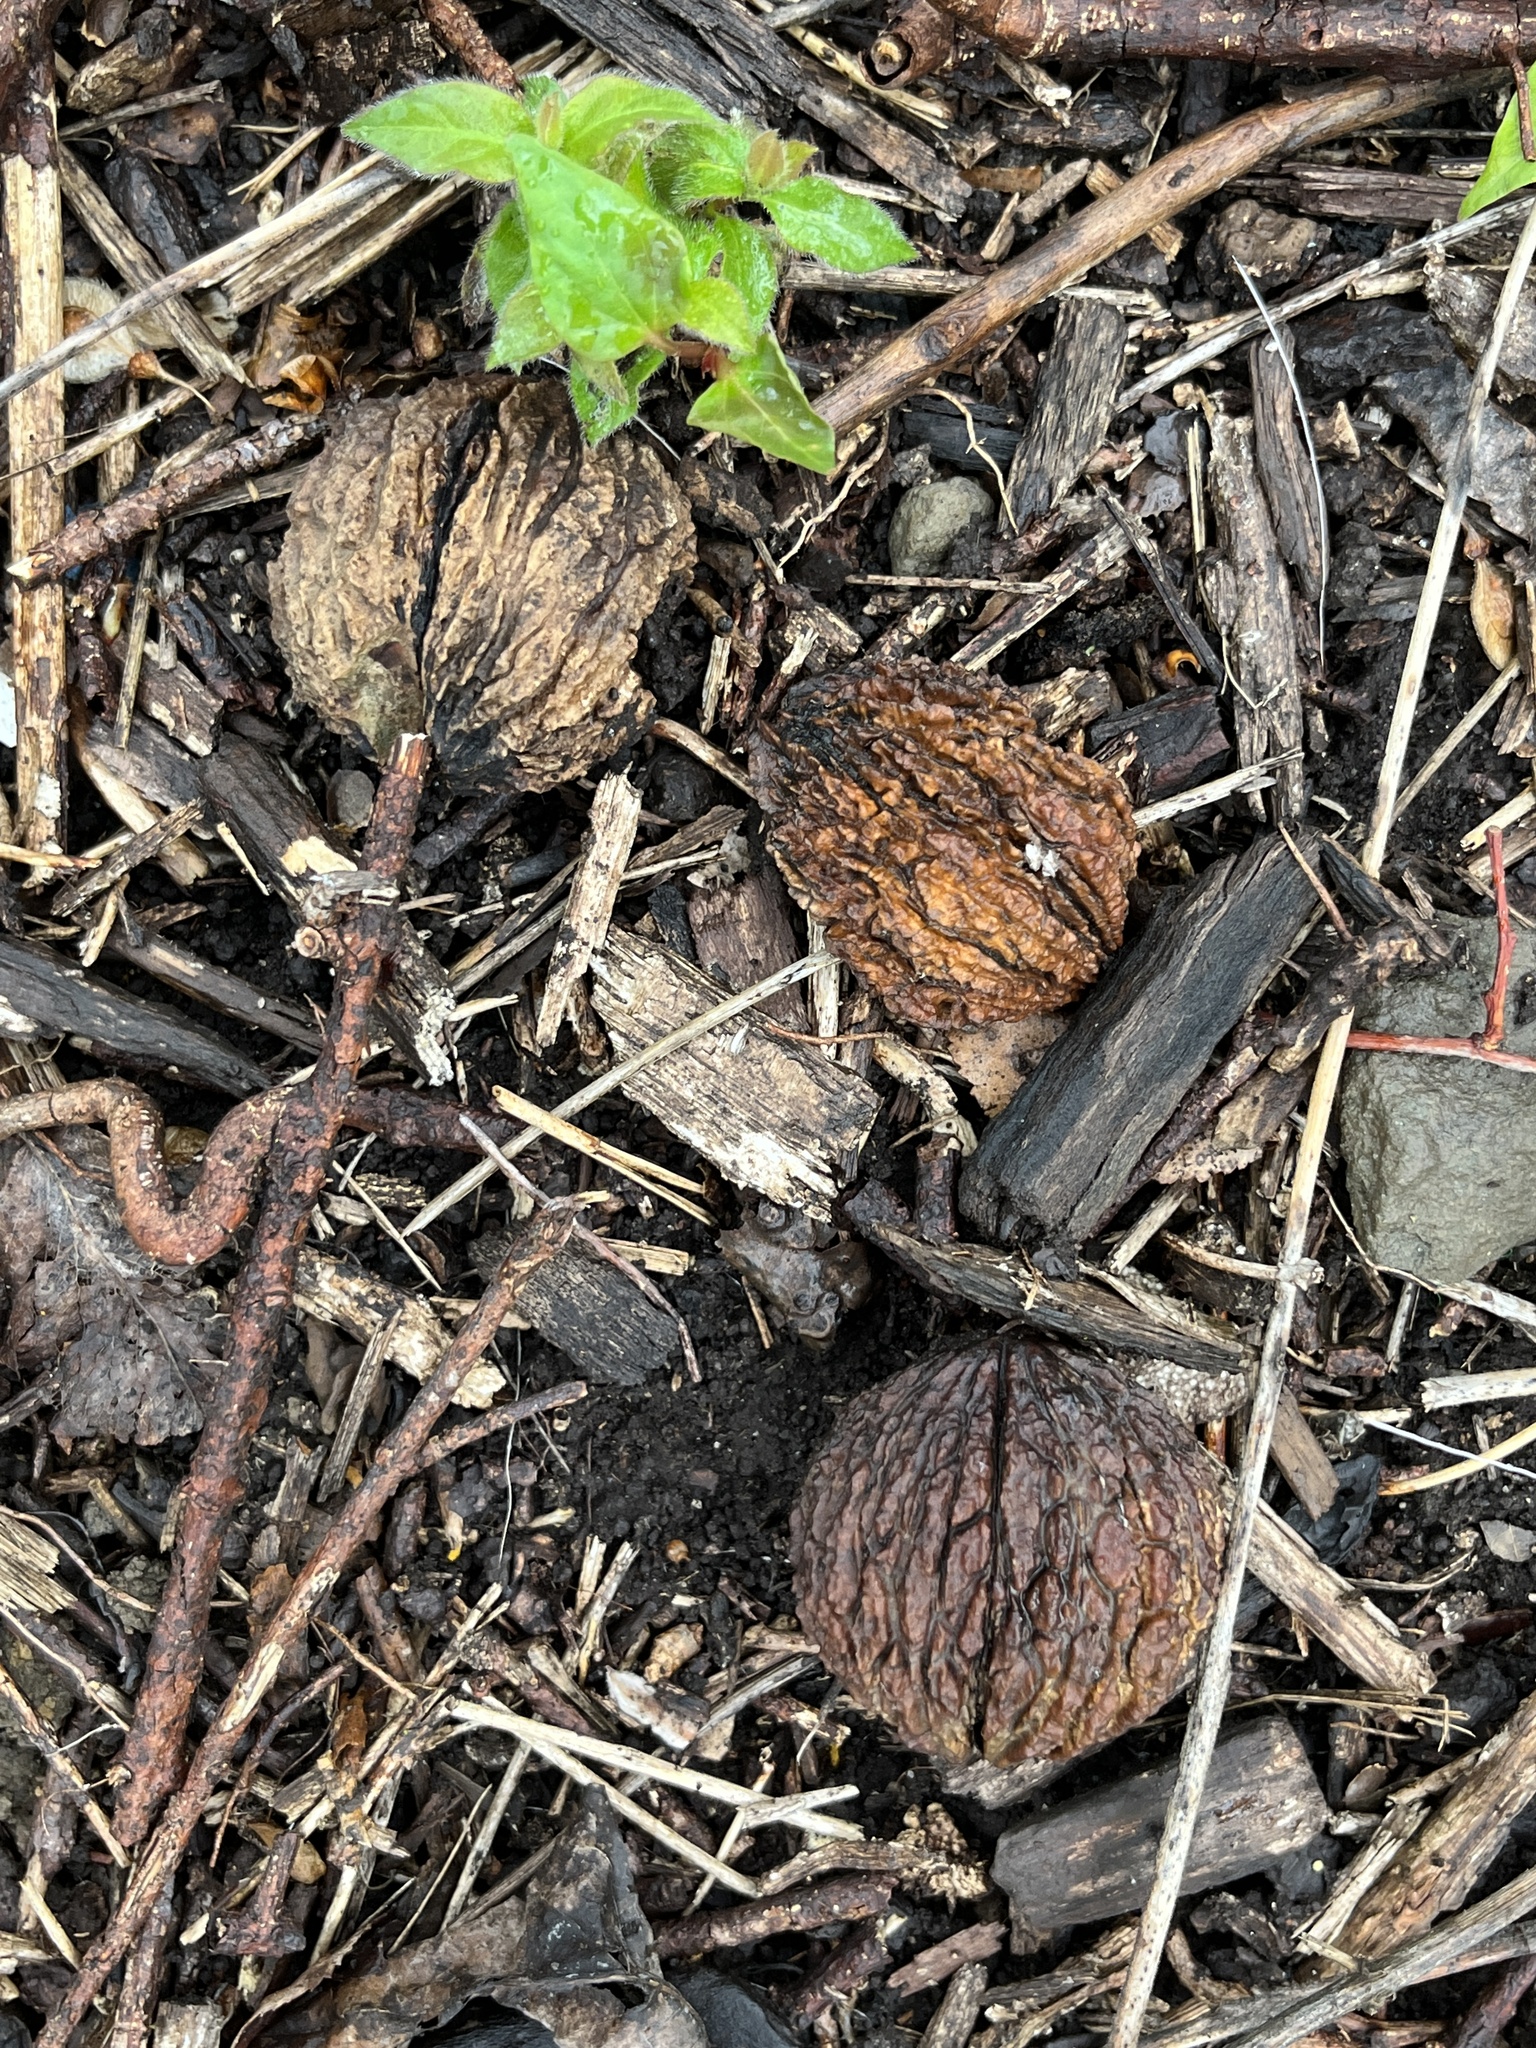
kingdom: Plantae
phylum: Tracheophyta
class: Magnoliopsida
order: Fagales
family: Juglandaceae
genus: Juglans
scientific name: Juglans nigra
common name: Black walnut
